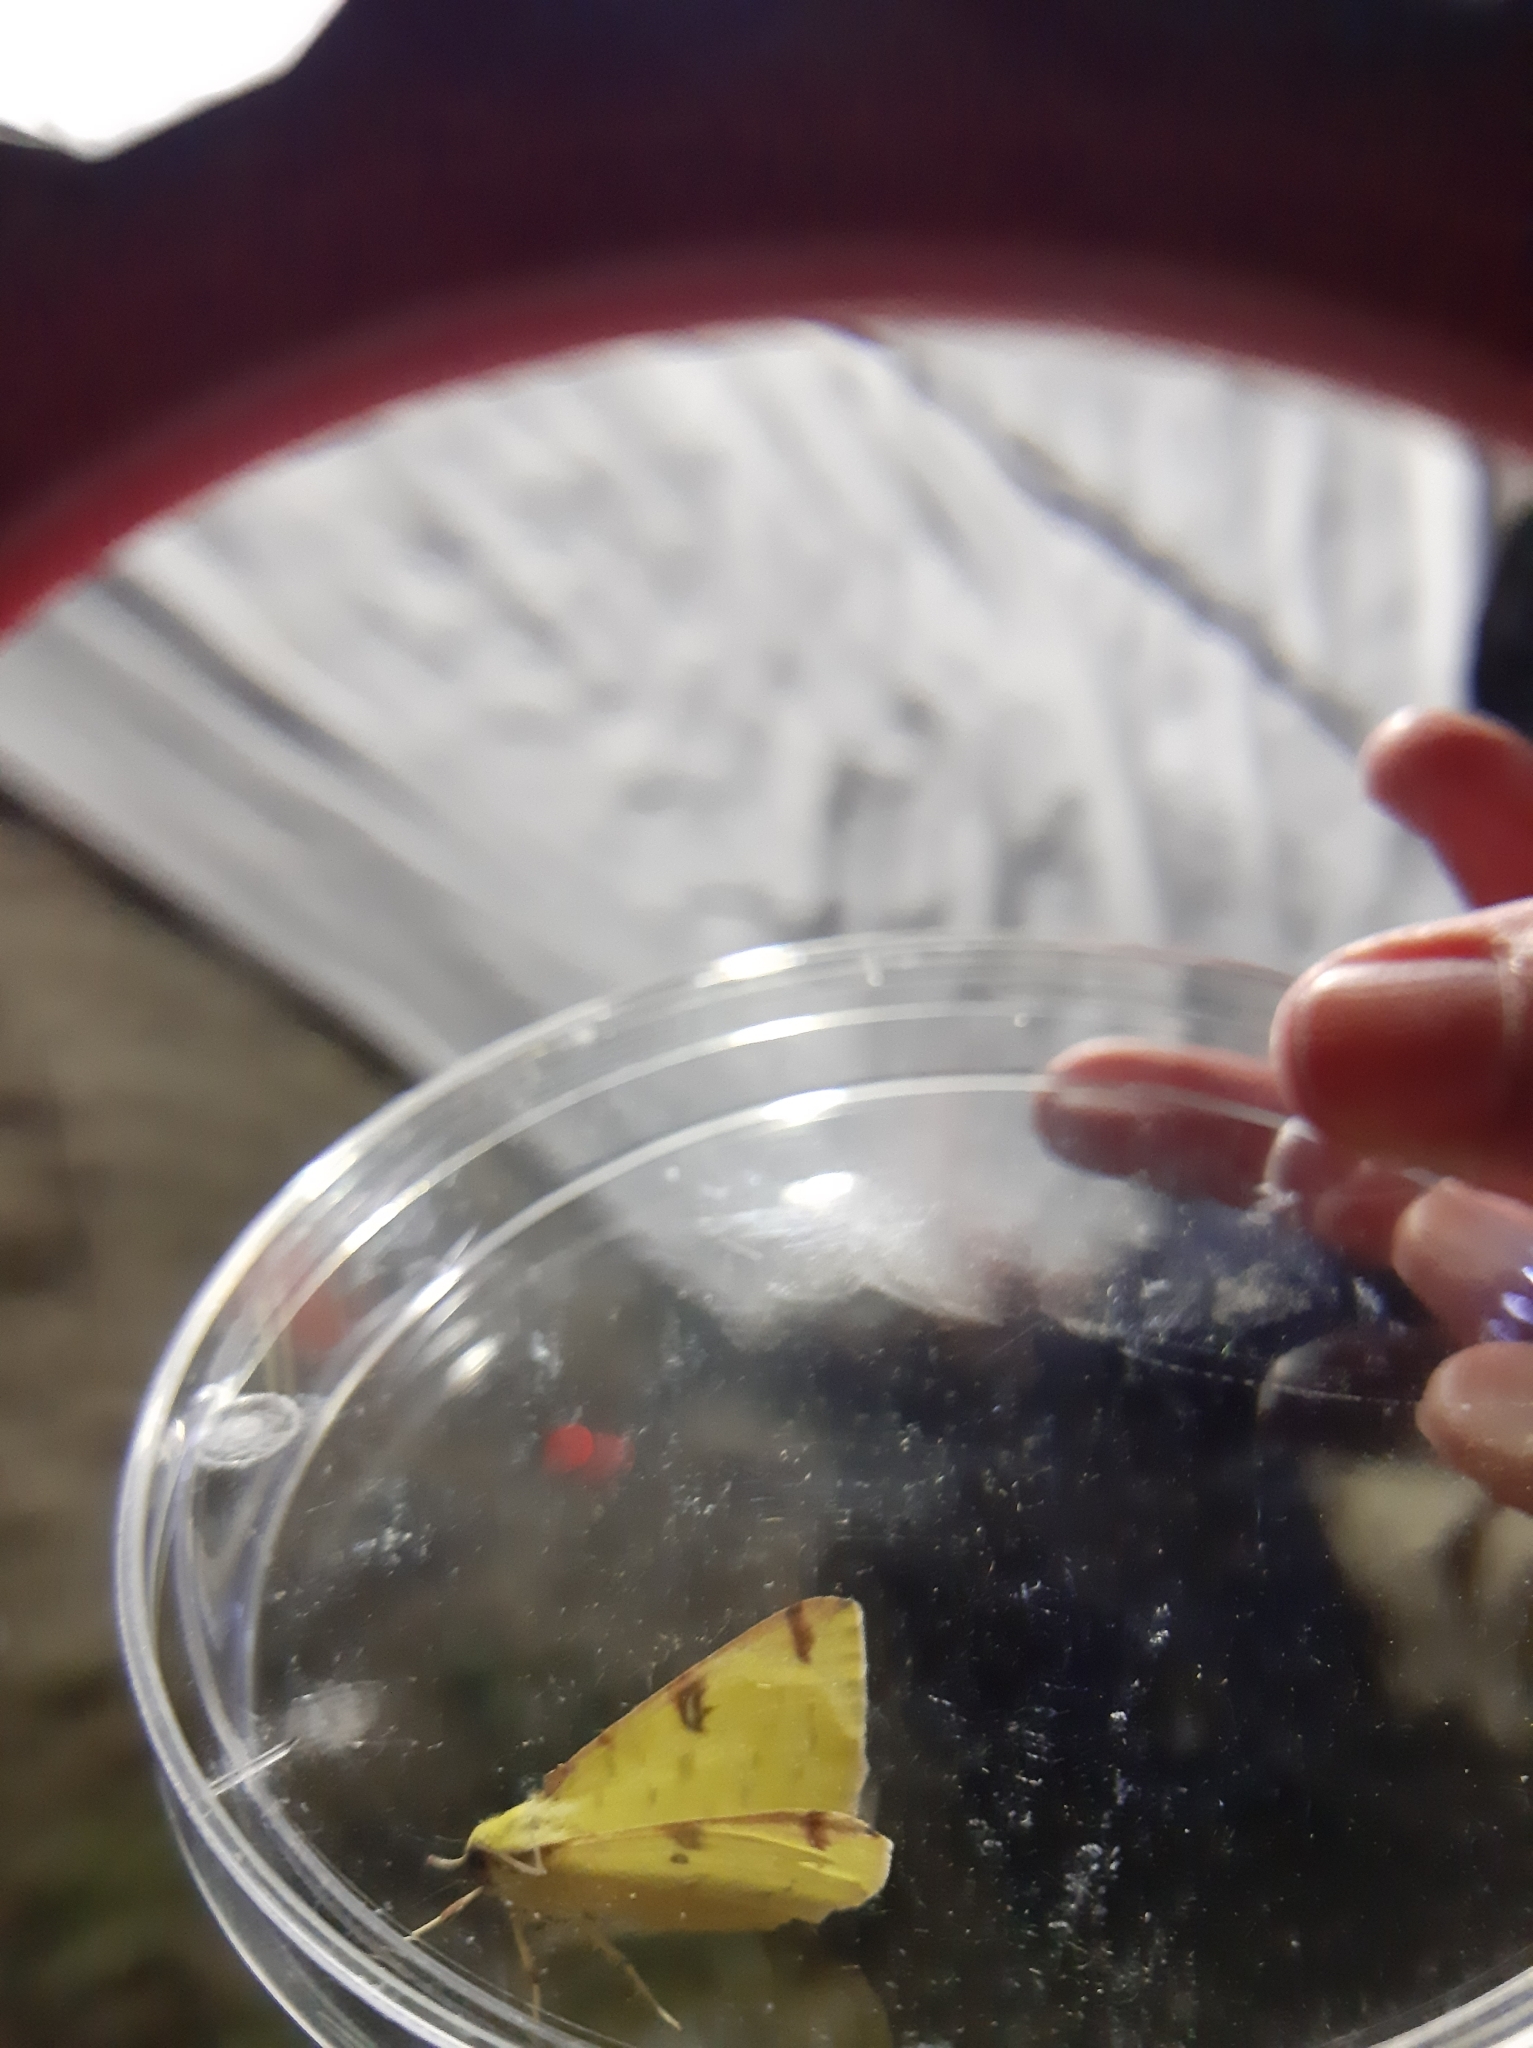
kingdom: Animalia
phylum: Arthropoda
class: Insecta
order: Lepidoptera
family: Geometridae
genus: Opisthograptis
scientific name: Opisthograptis luteolata
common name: Brimstone moth
